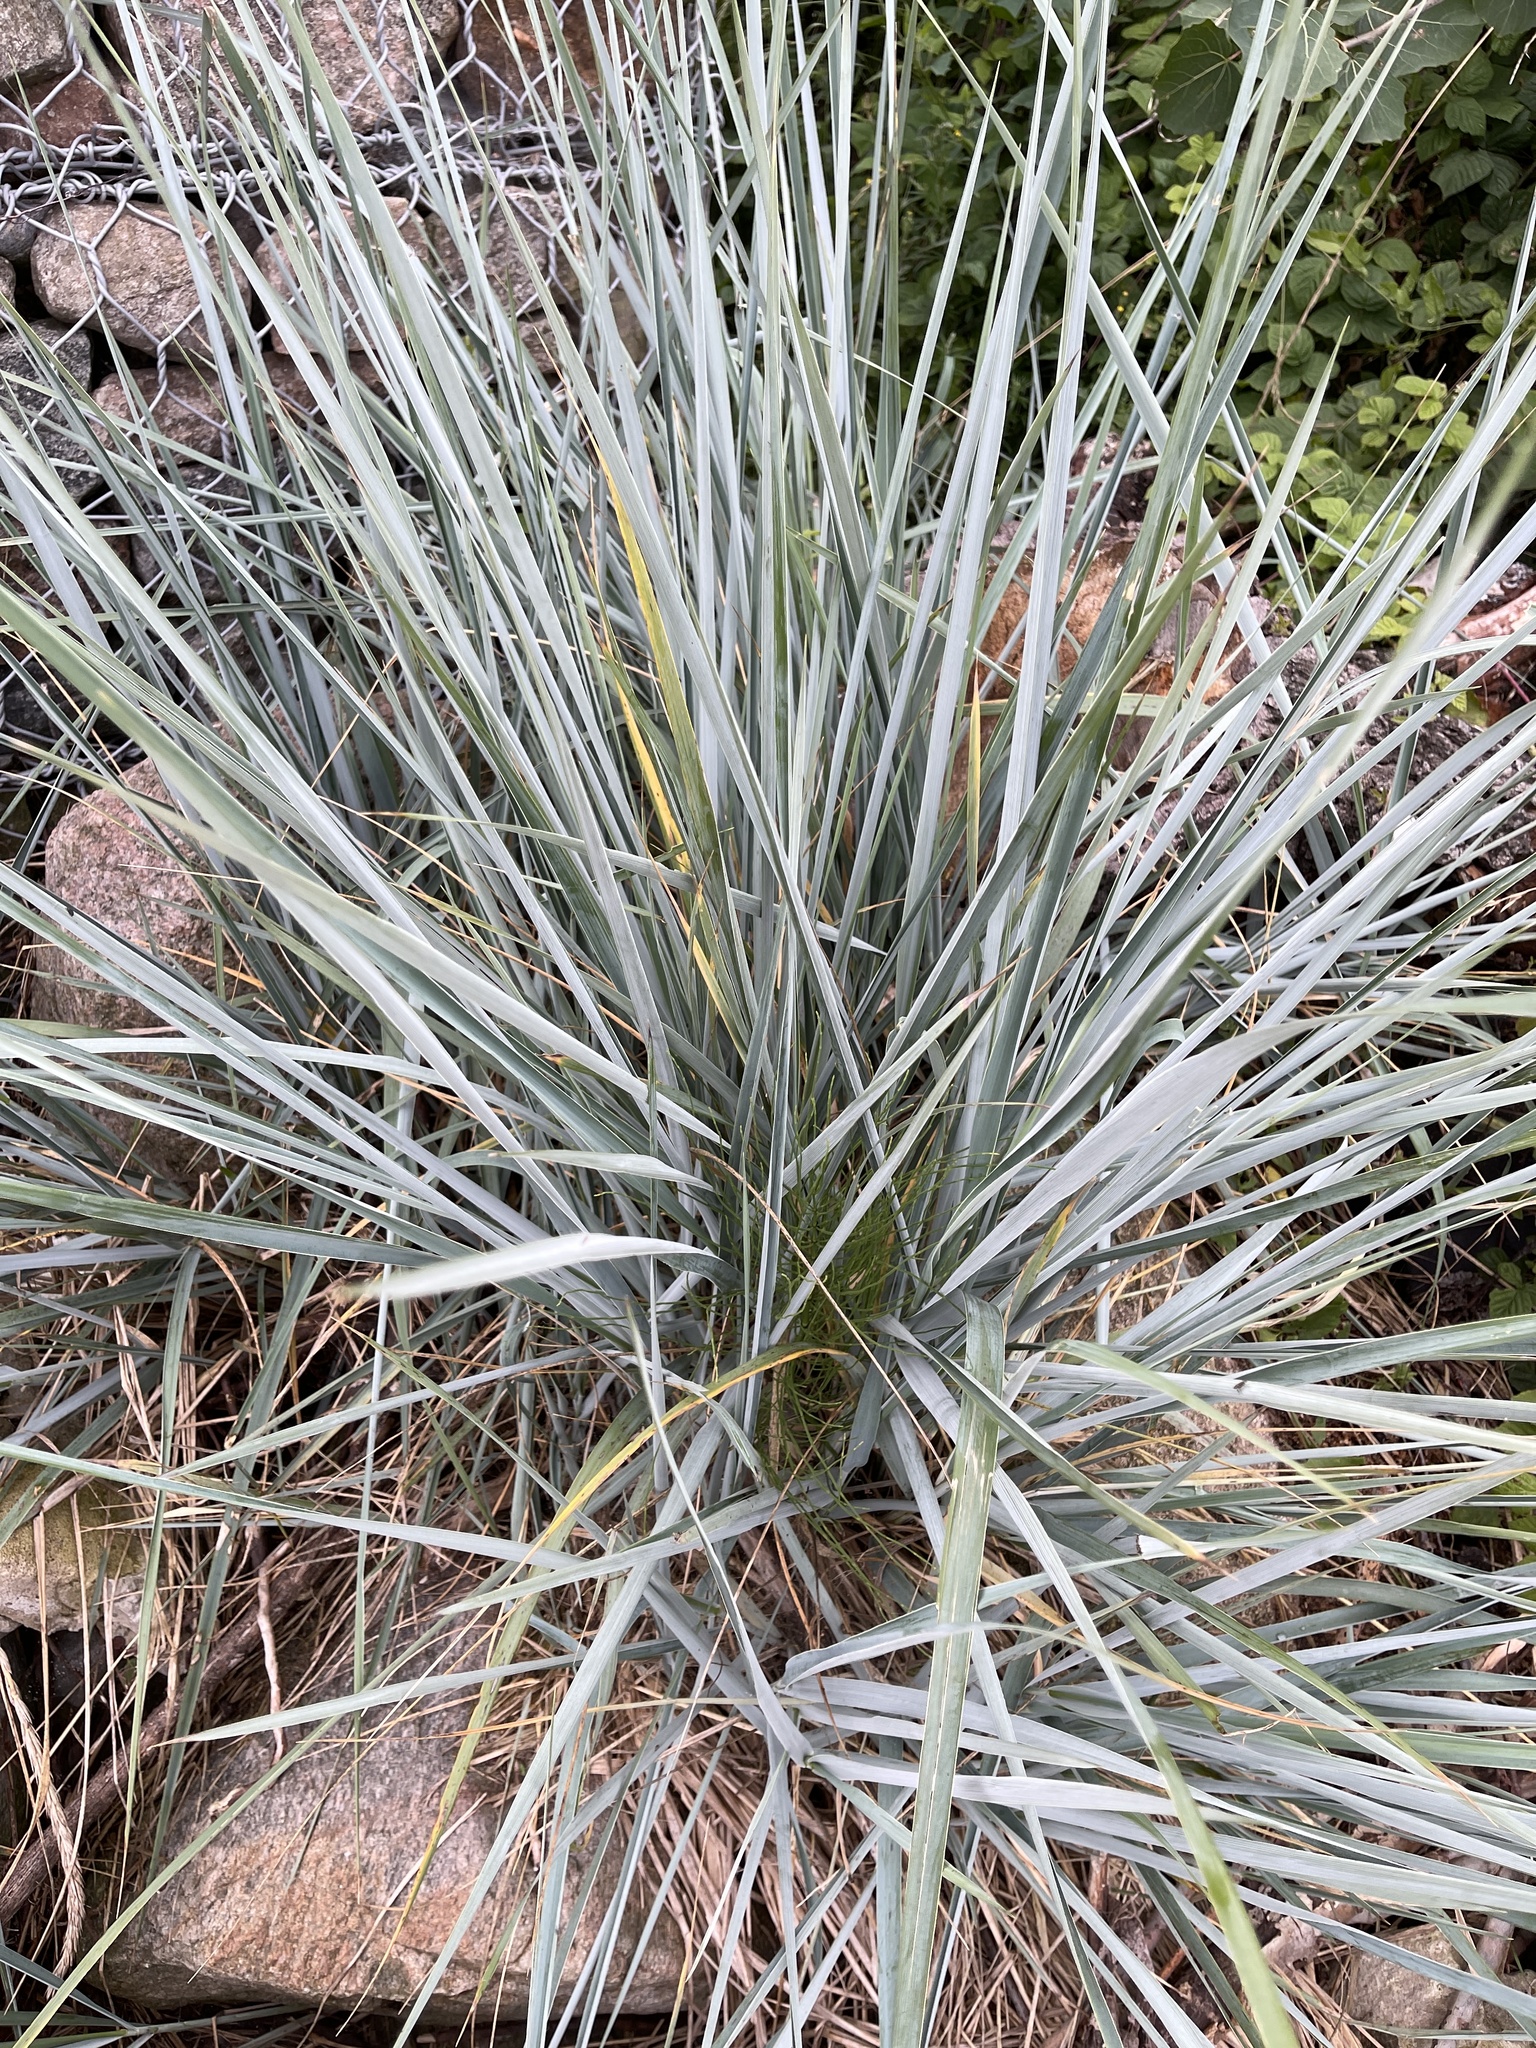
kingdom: Plantae
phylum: Tracheophyta
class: Liliopsida
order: Poales
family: Poaceae
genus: Leymus
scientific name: Leymus arenarius
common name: Lyme-grass
